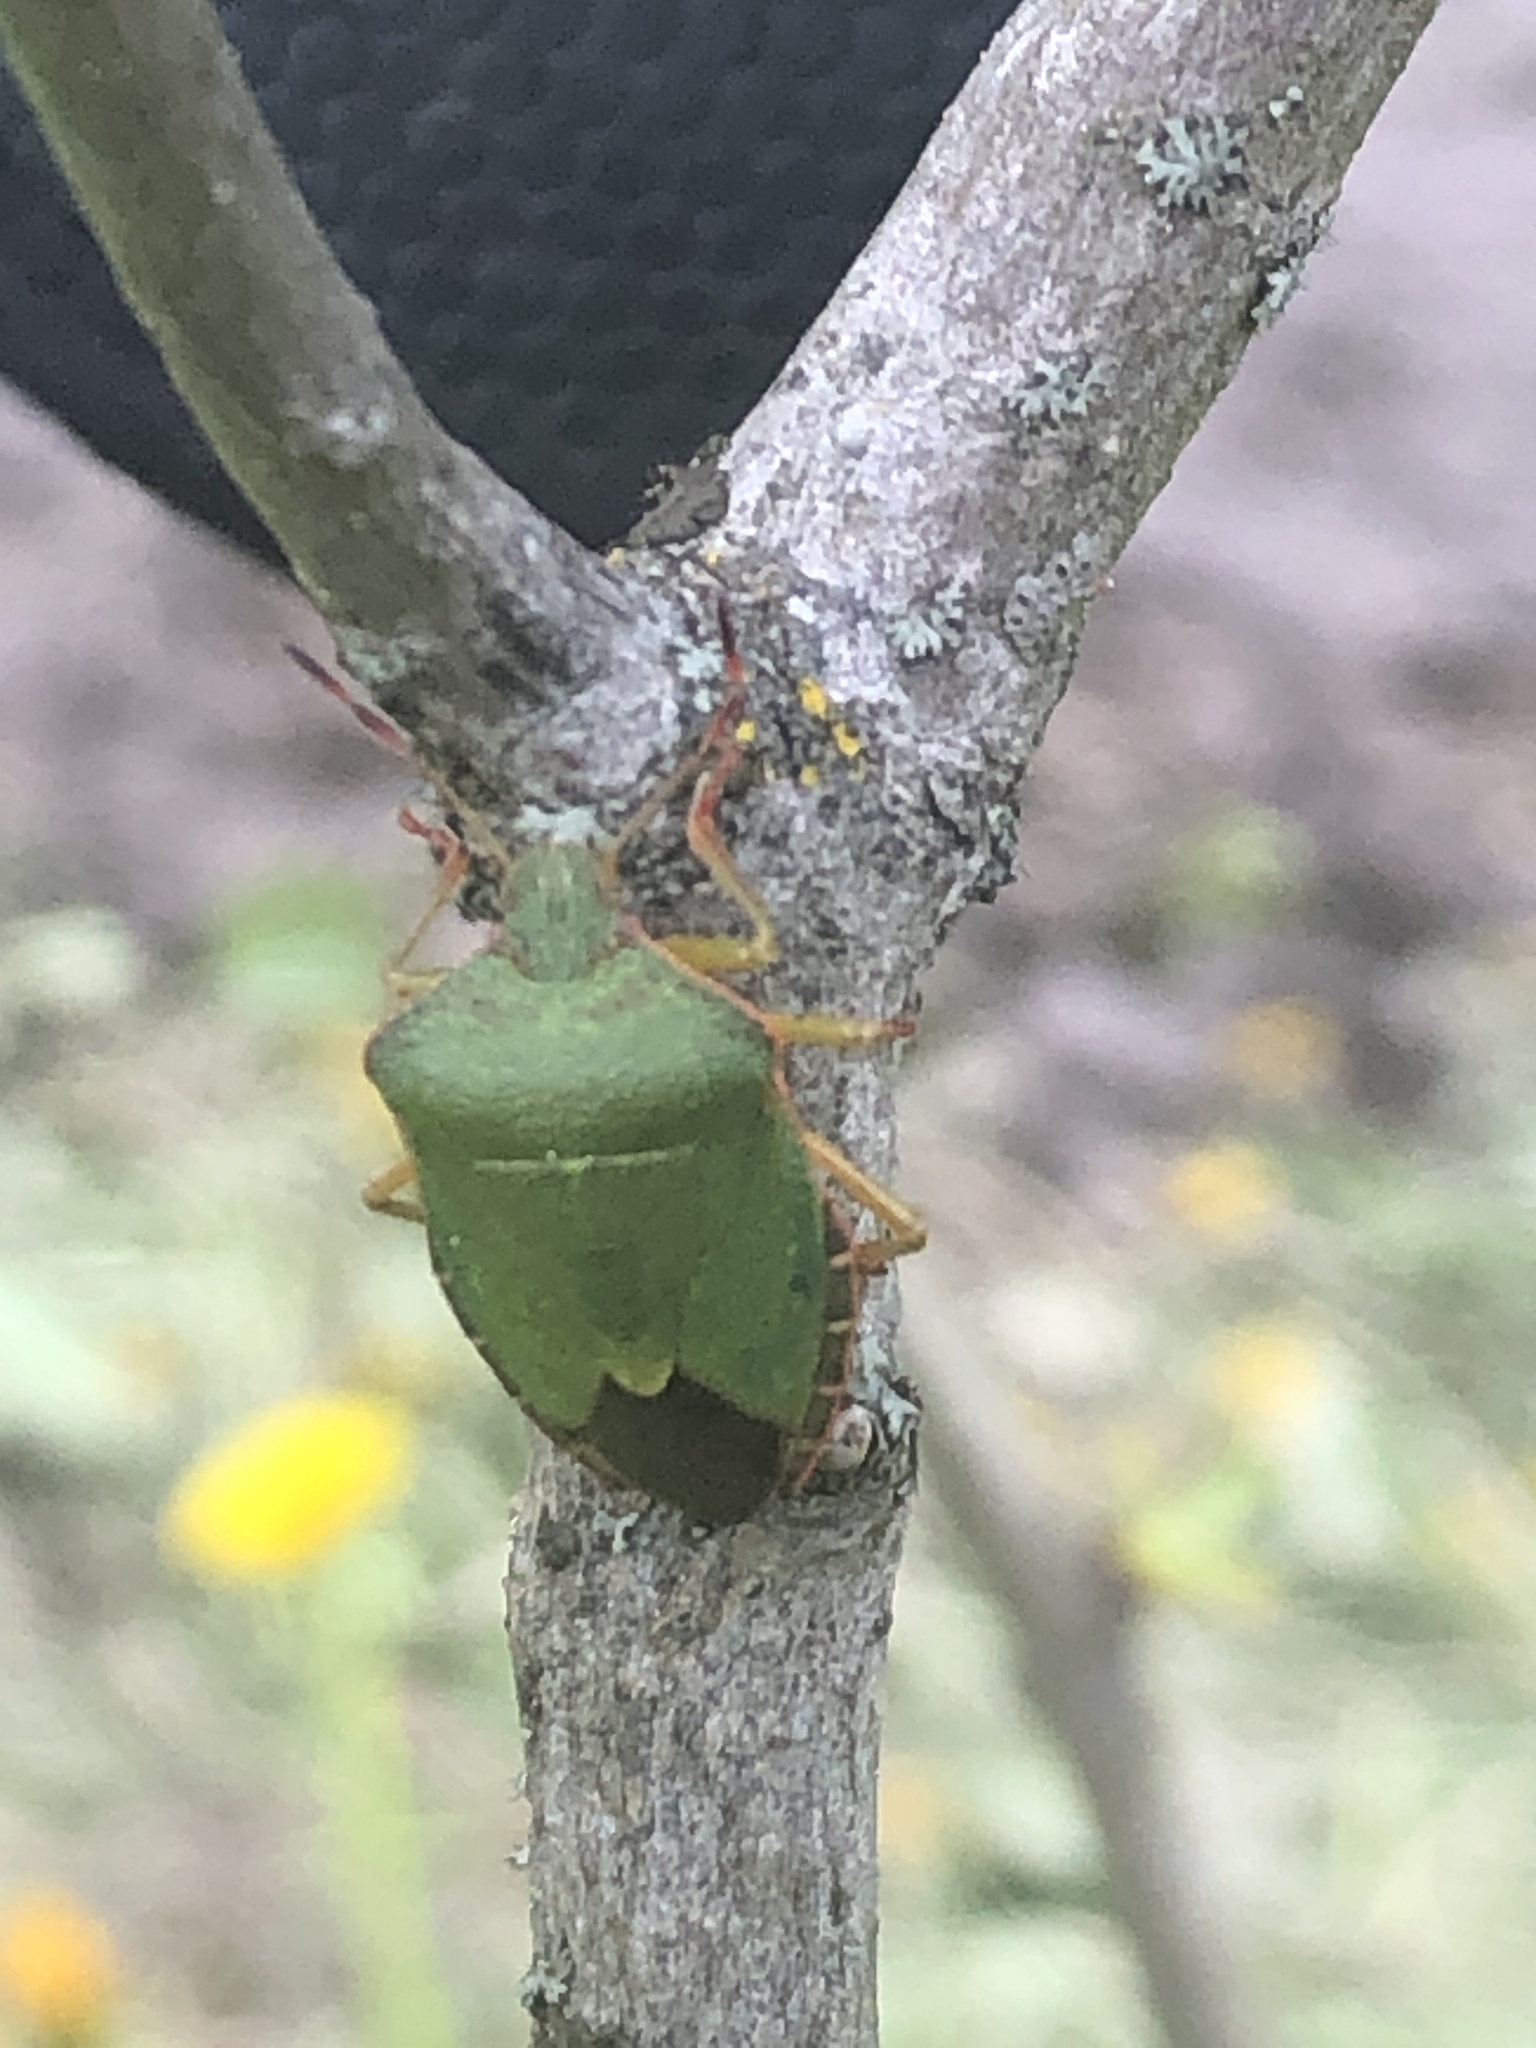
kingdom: Animalia
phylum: Arthropoda
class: Insecta
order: Hemiptera
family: Pentatomidae
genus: Palomena
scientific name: Palomena prasina
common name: Green shieldbug
